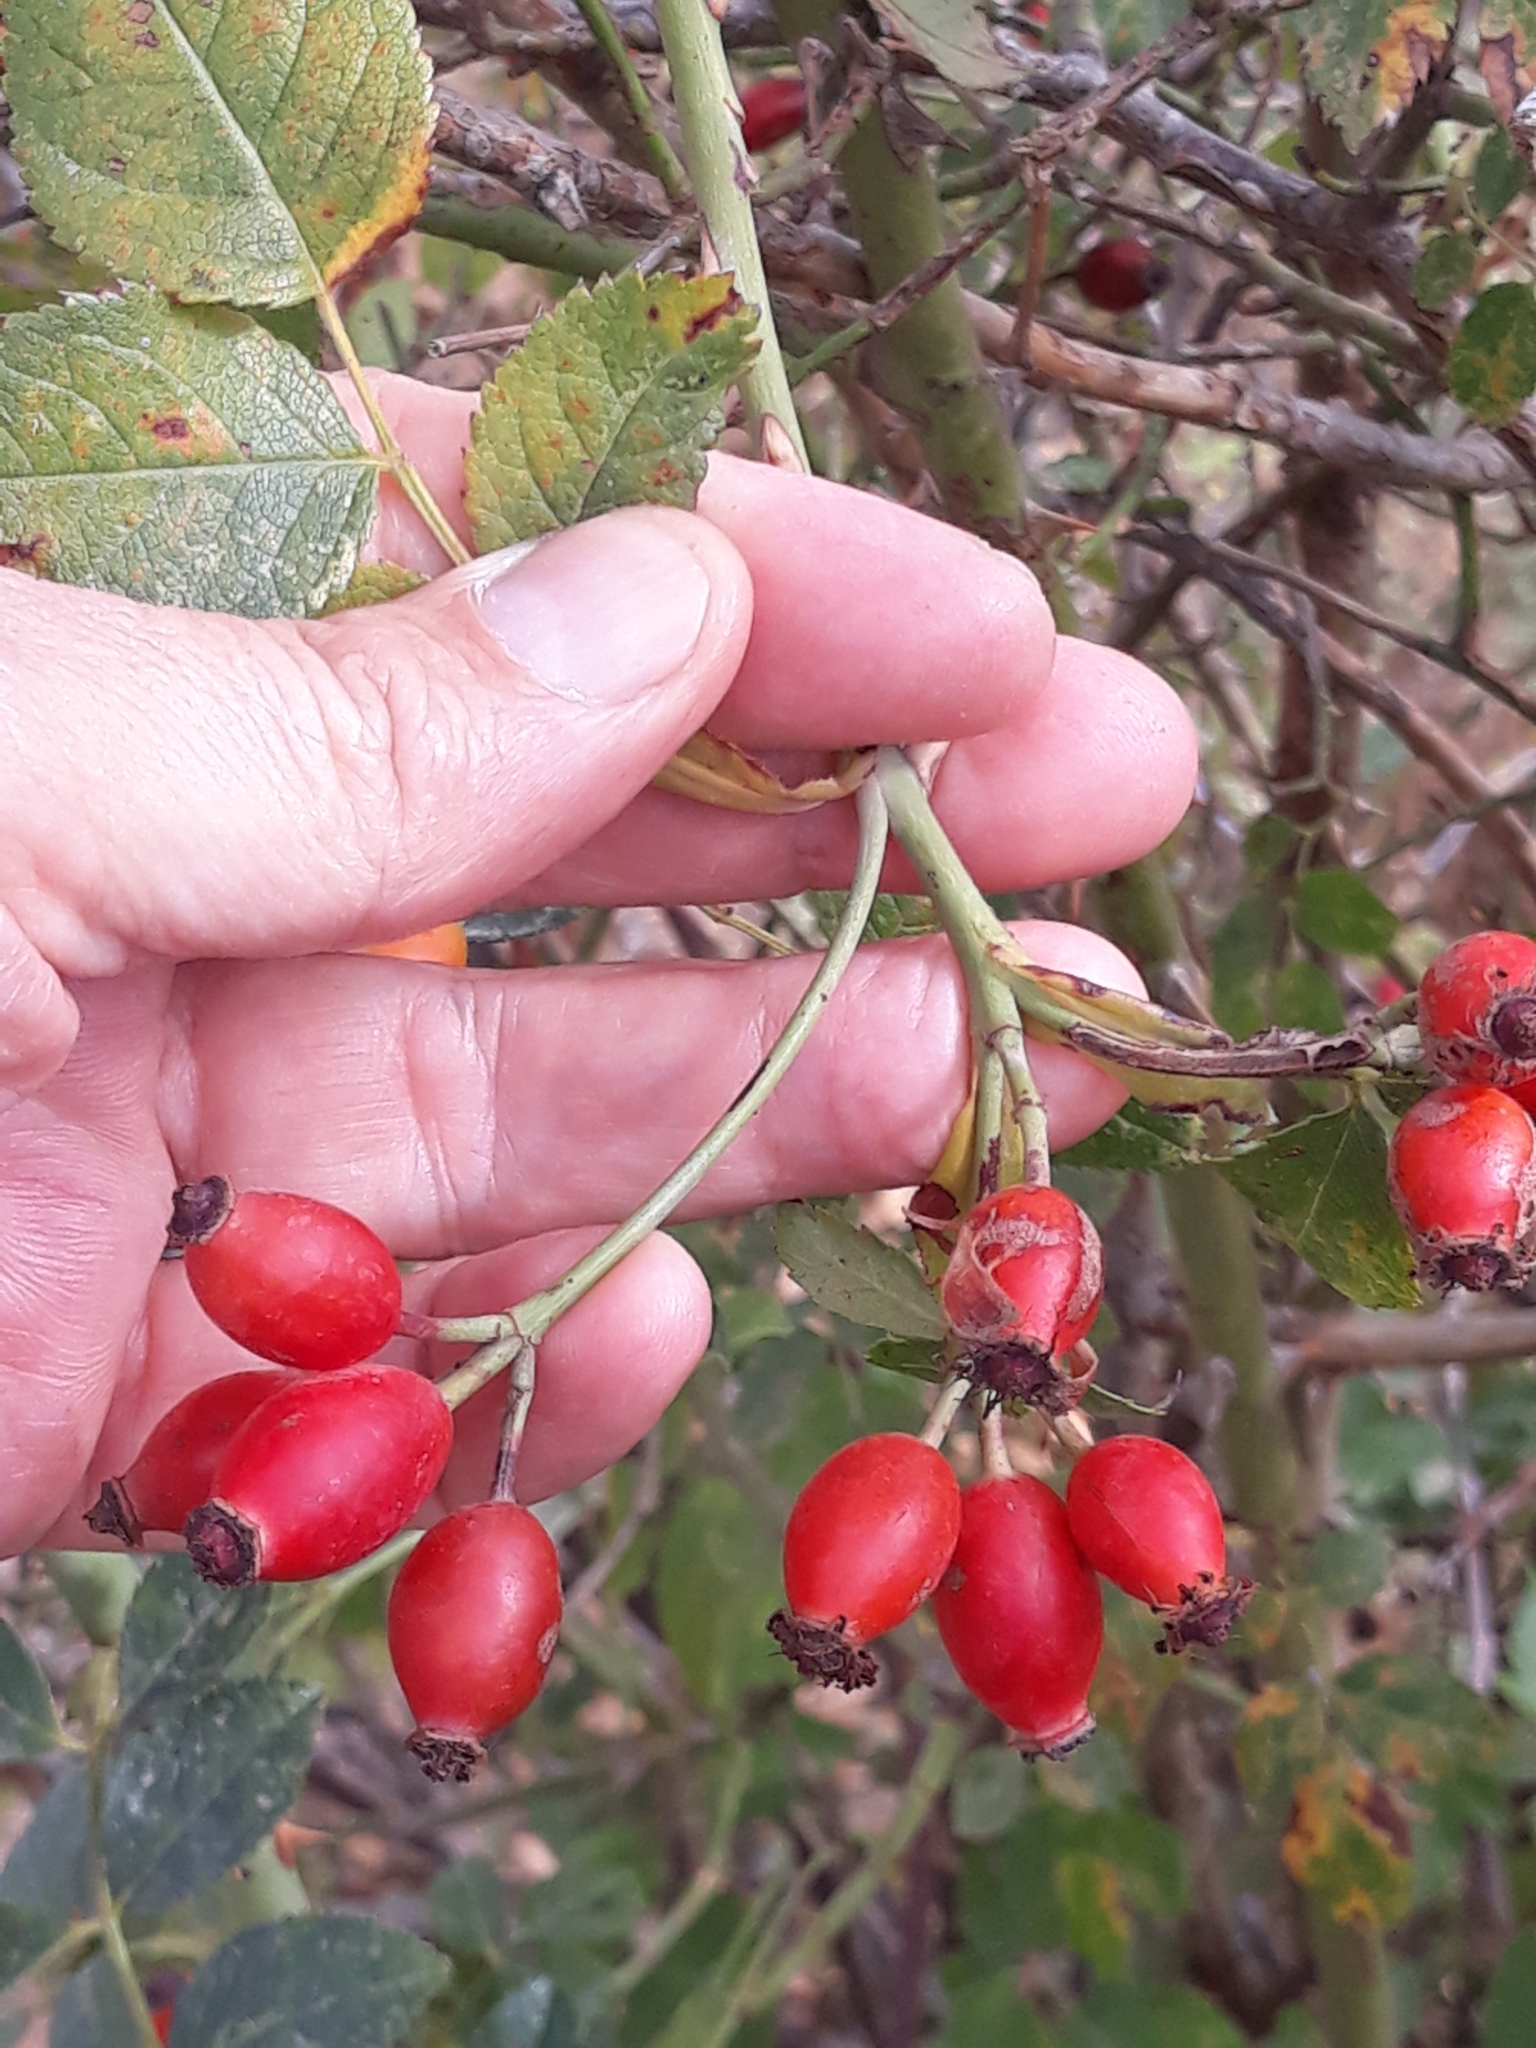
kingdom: Plantae
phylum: Tracheophyta
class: Magnoliopsida
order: Rosales
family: Rosaceae
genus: Rosa
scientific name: Rosa canina
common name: Dog rose
